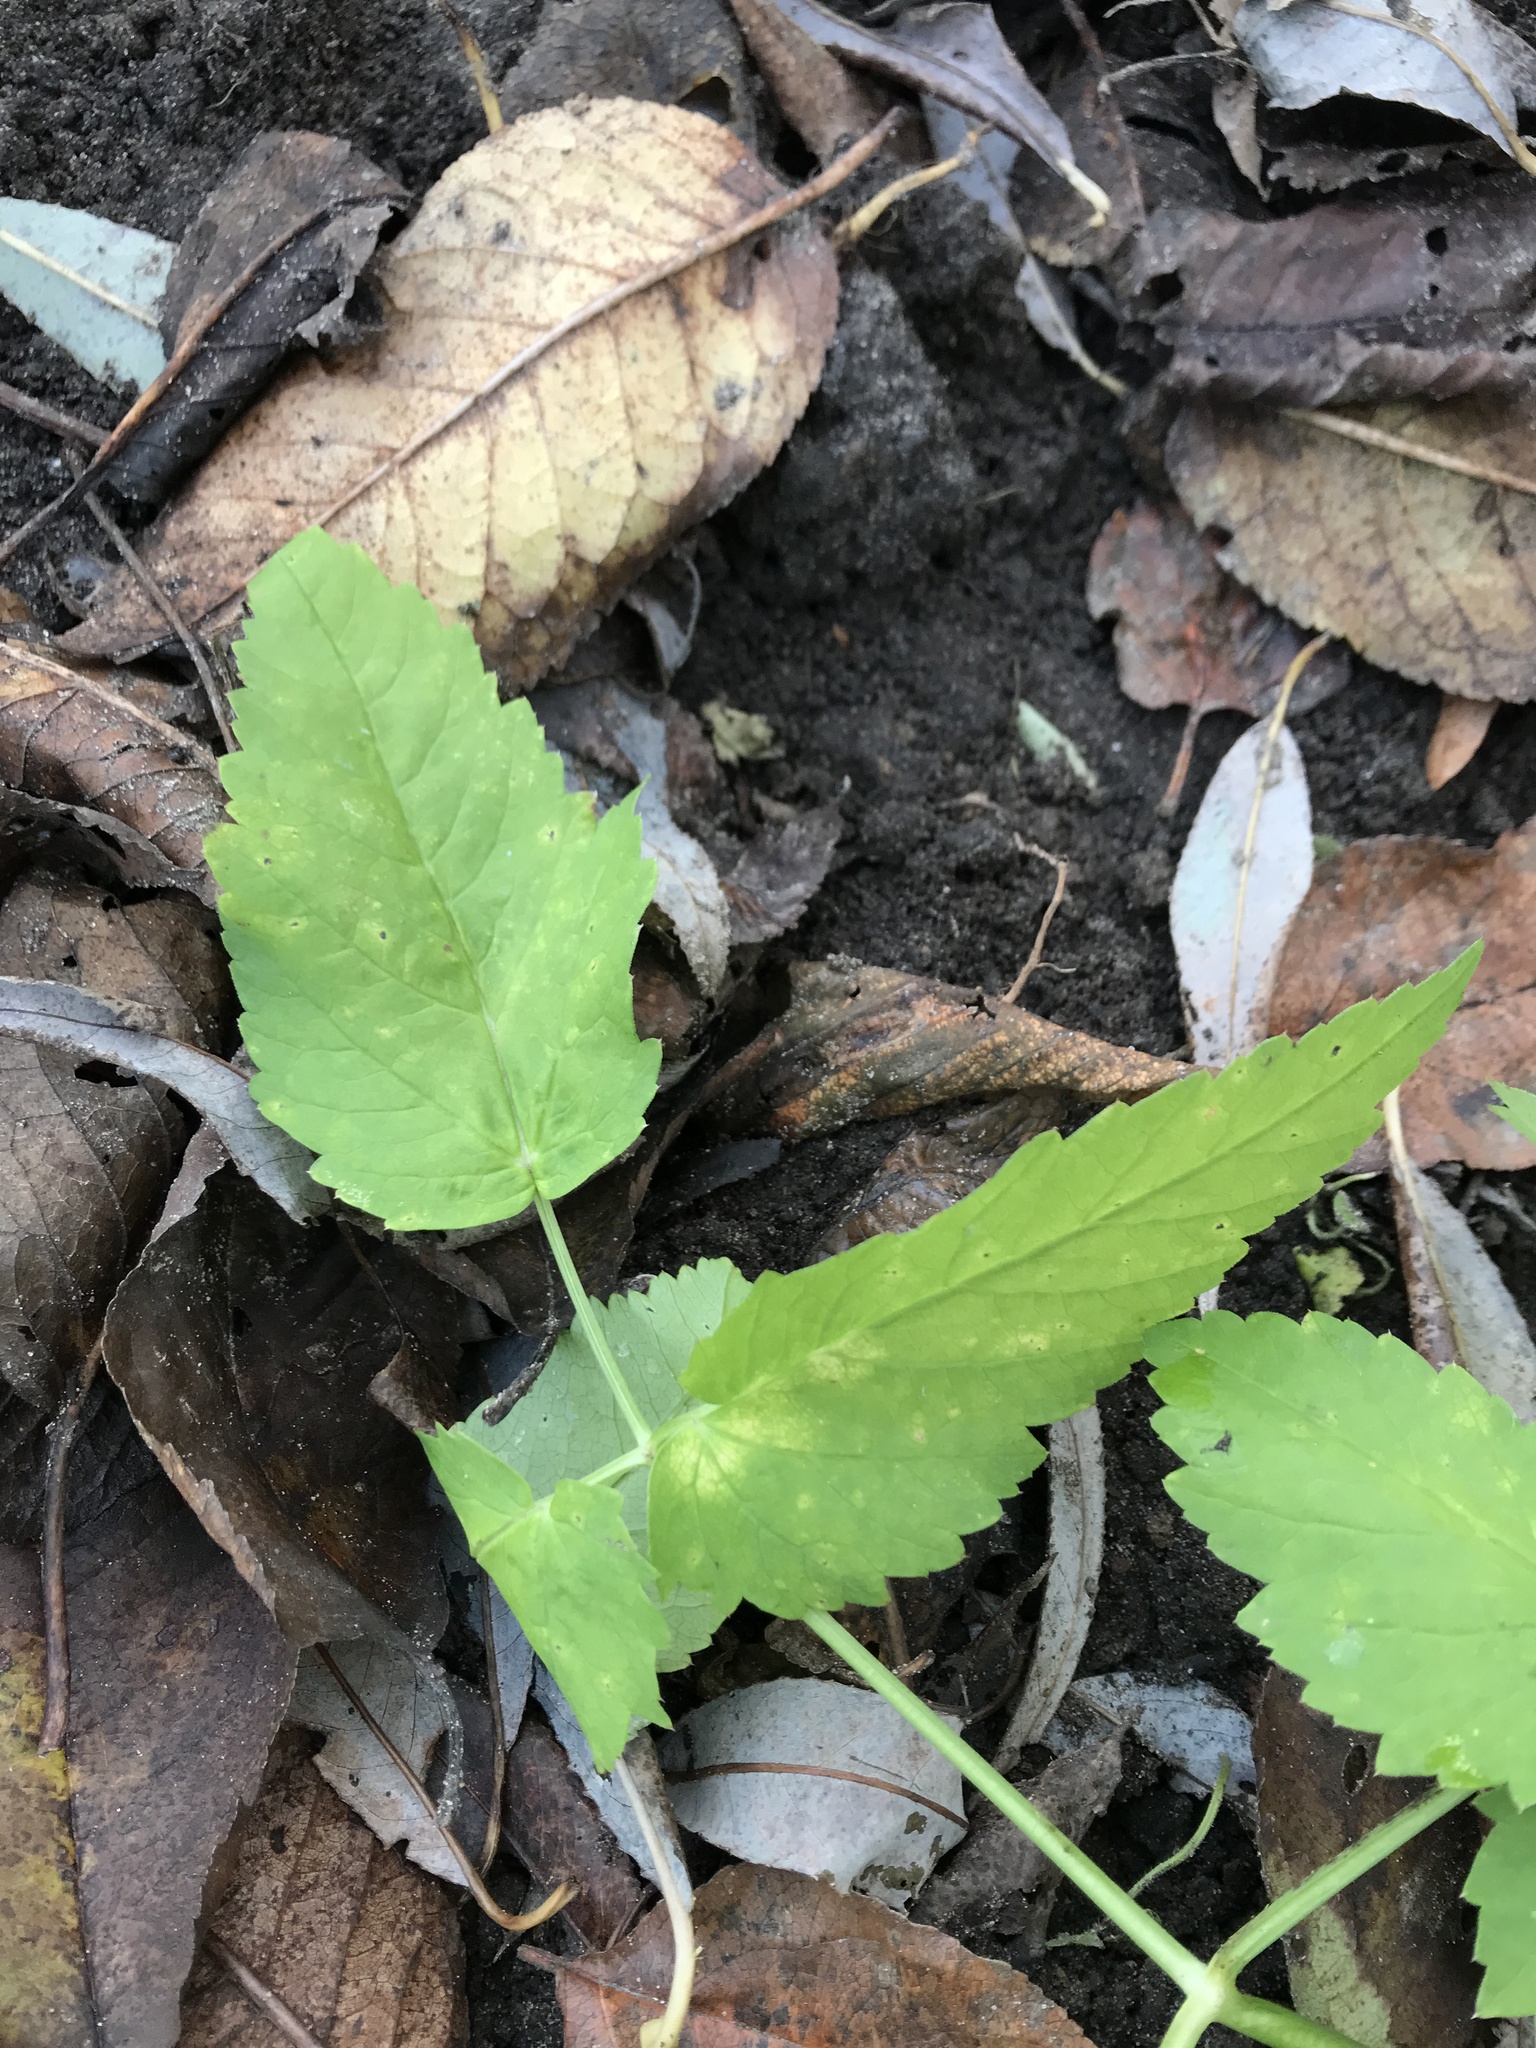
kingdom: Plantae
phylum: Tracheophyta
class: Magnoliopsida
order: Apiales
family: Apiaceae
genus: Aegopodium
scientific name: Aegopodium podagraria
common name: Ground-elder
